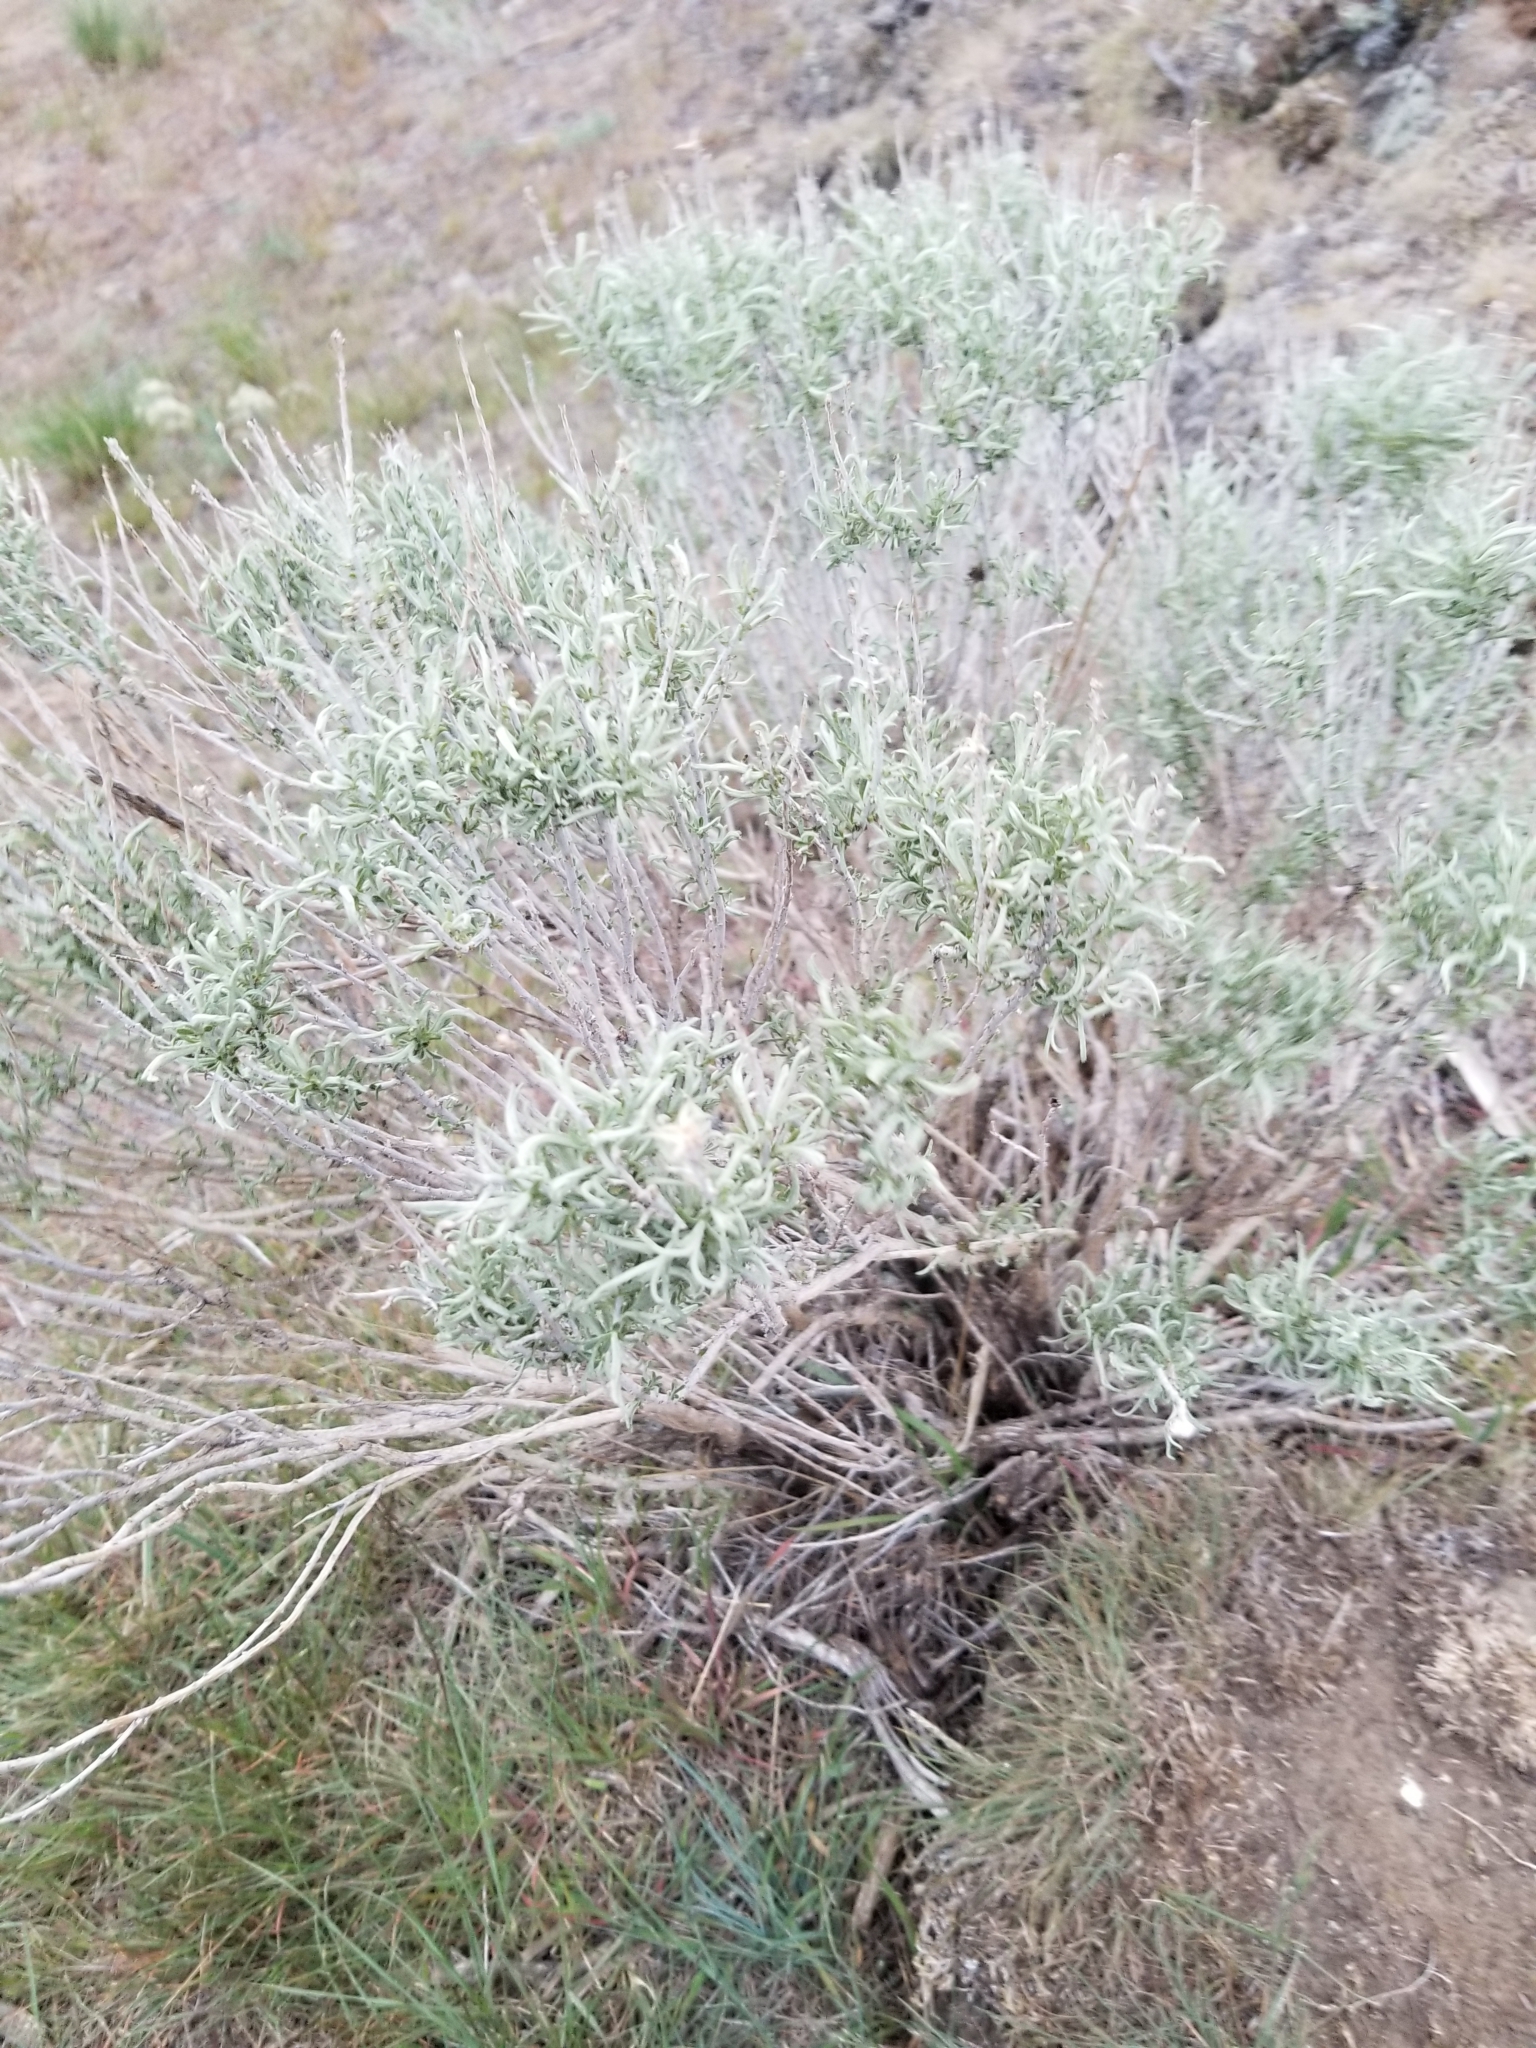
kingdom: Plantae
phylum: Tracheophyta
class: Magnoliopsida
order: Asterales
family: Asteraceae
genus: Ericameria
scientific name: Ericameria nauseosa
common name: Rubber rabbitbrush
